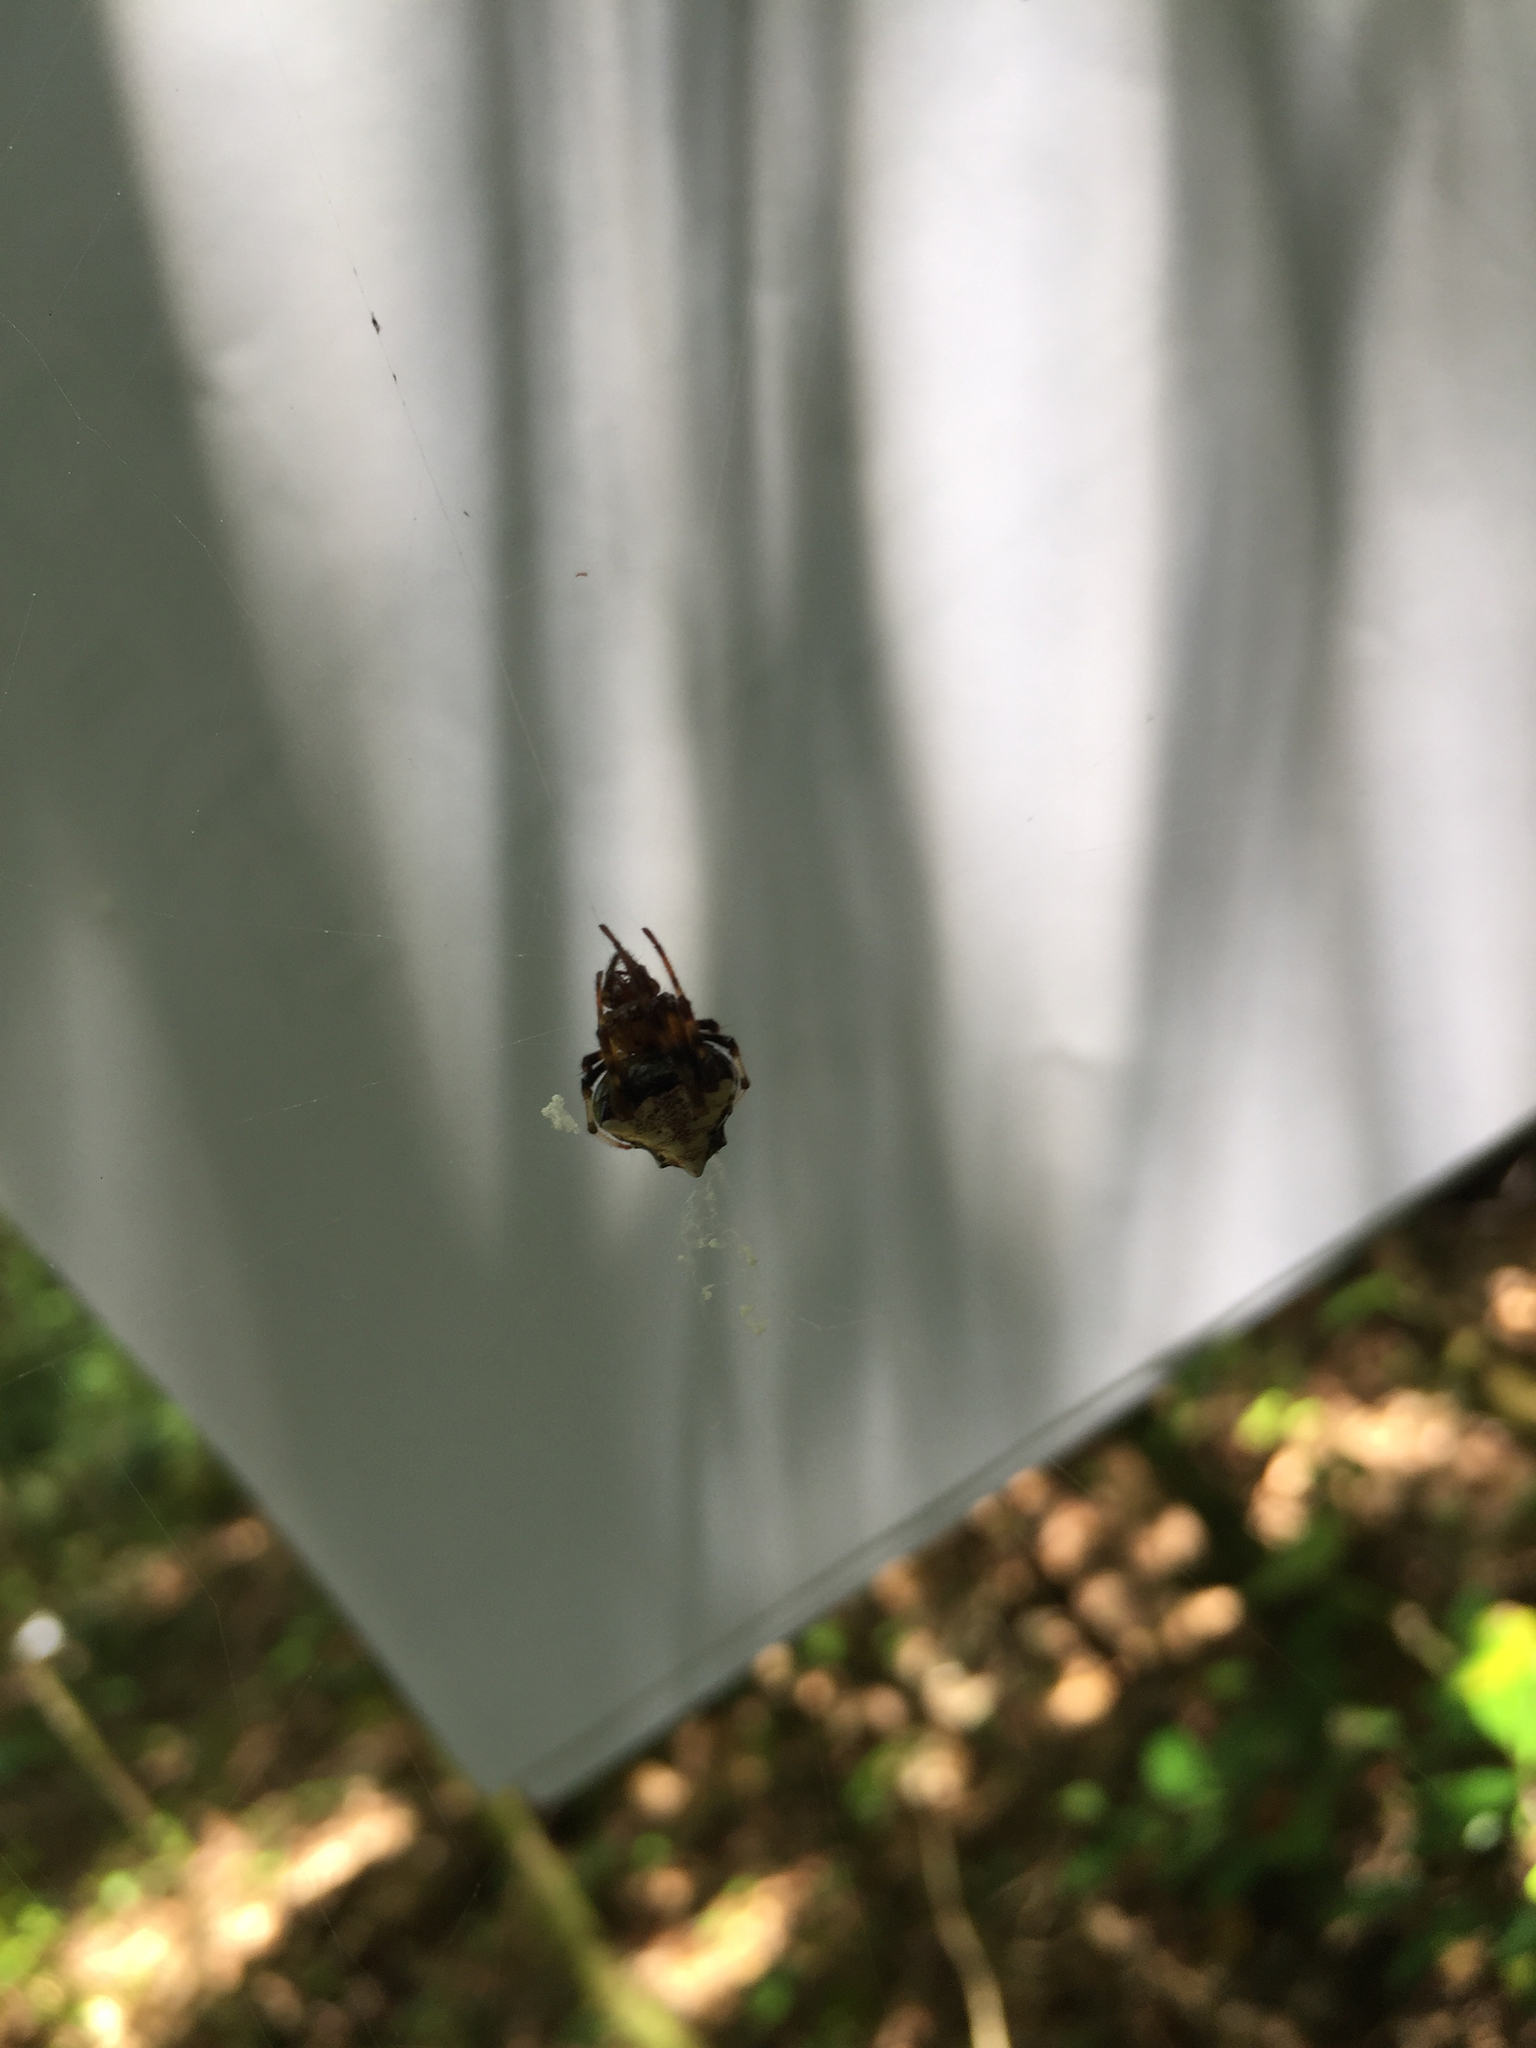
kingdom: Animalia
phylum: Arthropoda
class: Arachnida
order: Araneae
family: Araneidae
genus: Verrucosa
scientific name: Verrucosa arenata
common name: Orb weavers
